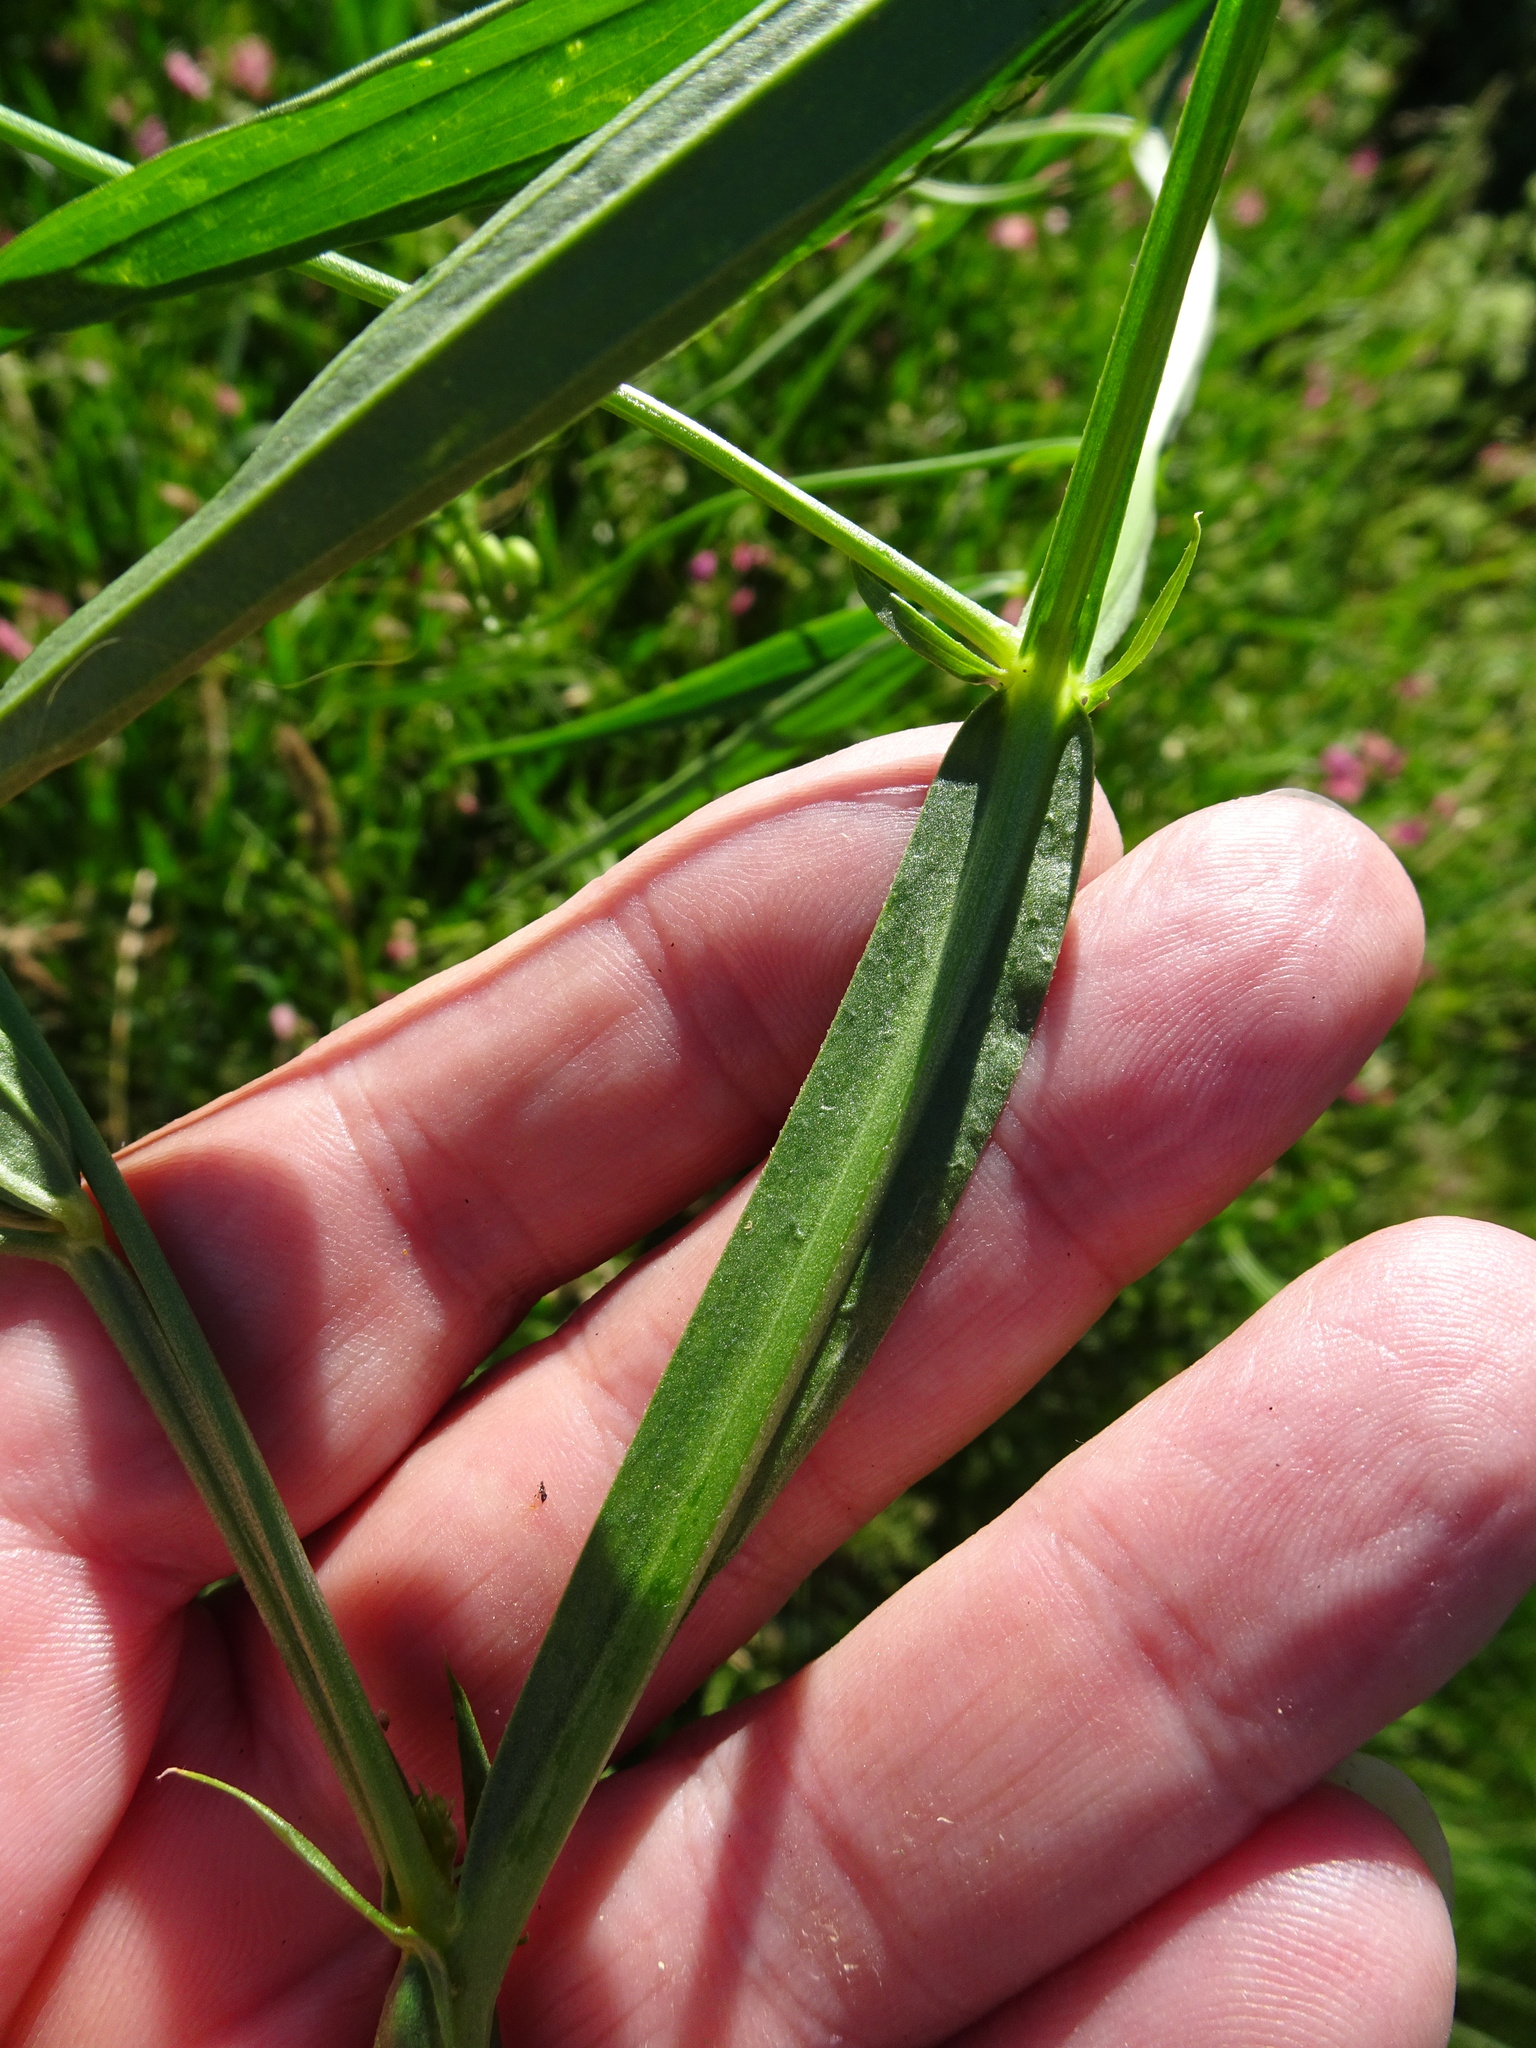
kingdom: Plantae
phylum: Tracheophyta
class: Magnoliopsida
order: Fabales
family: Fabaceae
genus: Lathyrus
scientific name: Lathyrus sylvestris
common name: Flat pea
